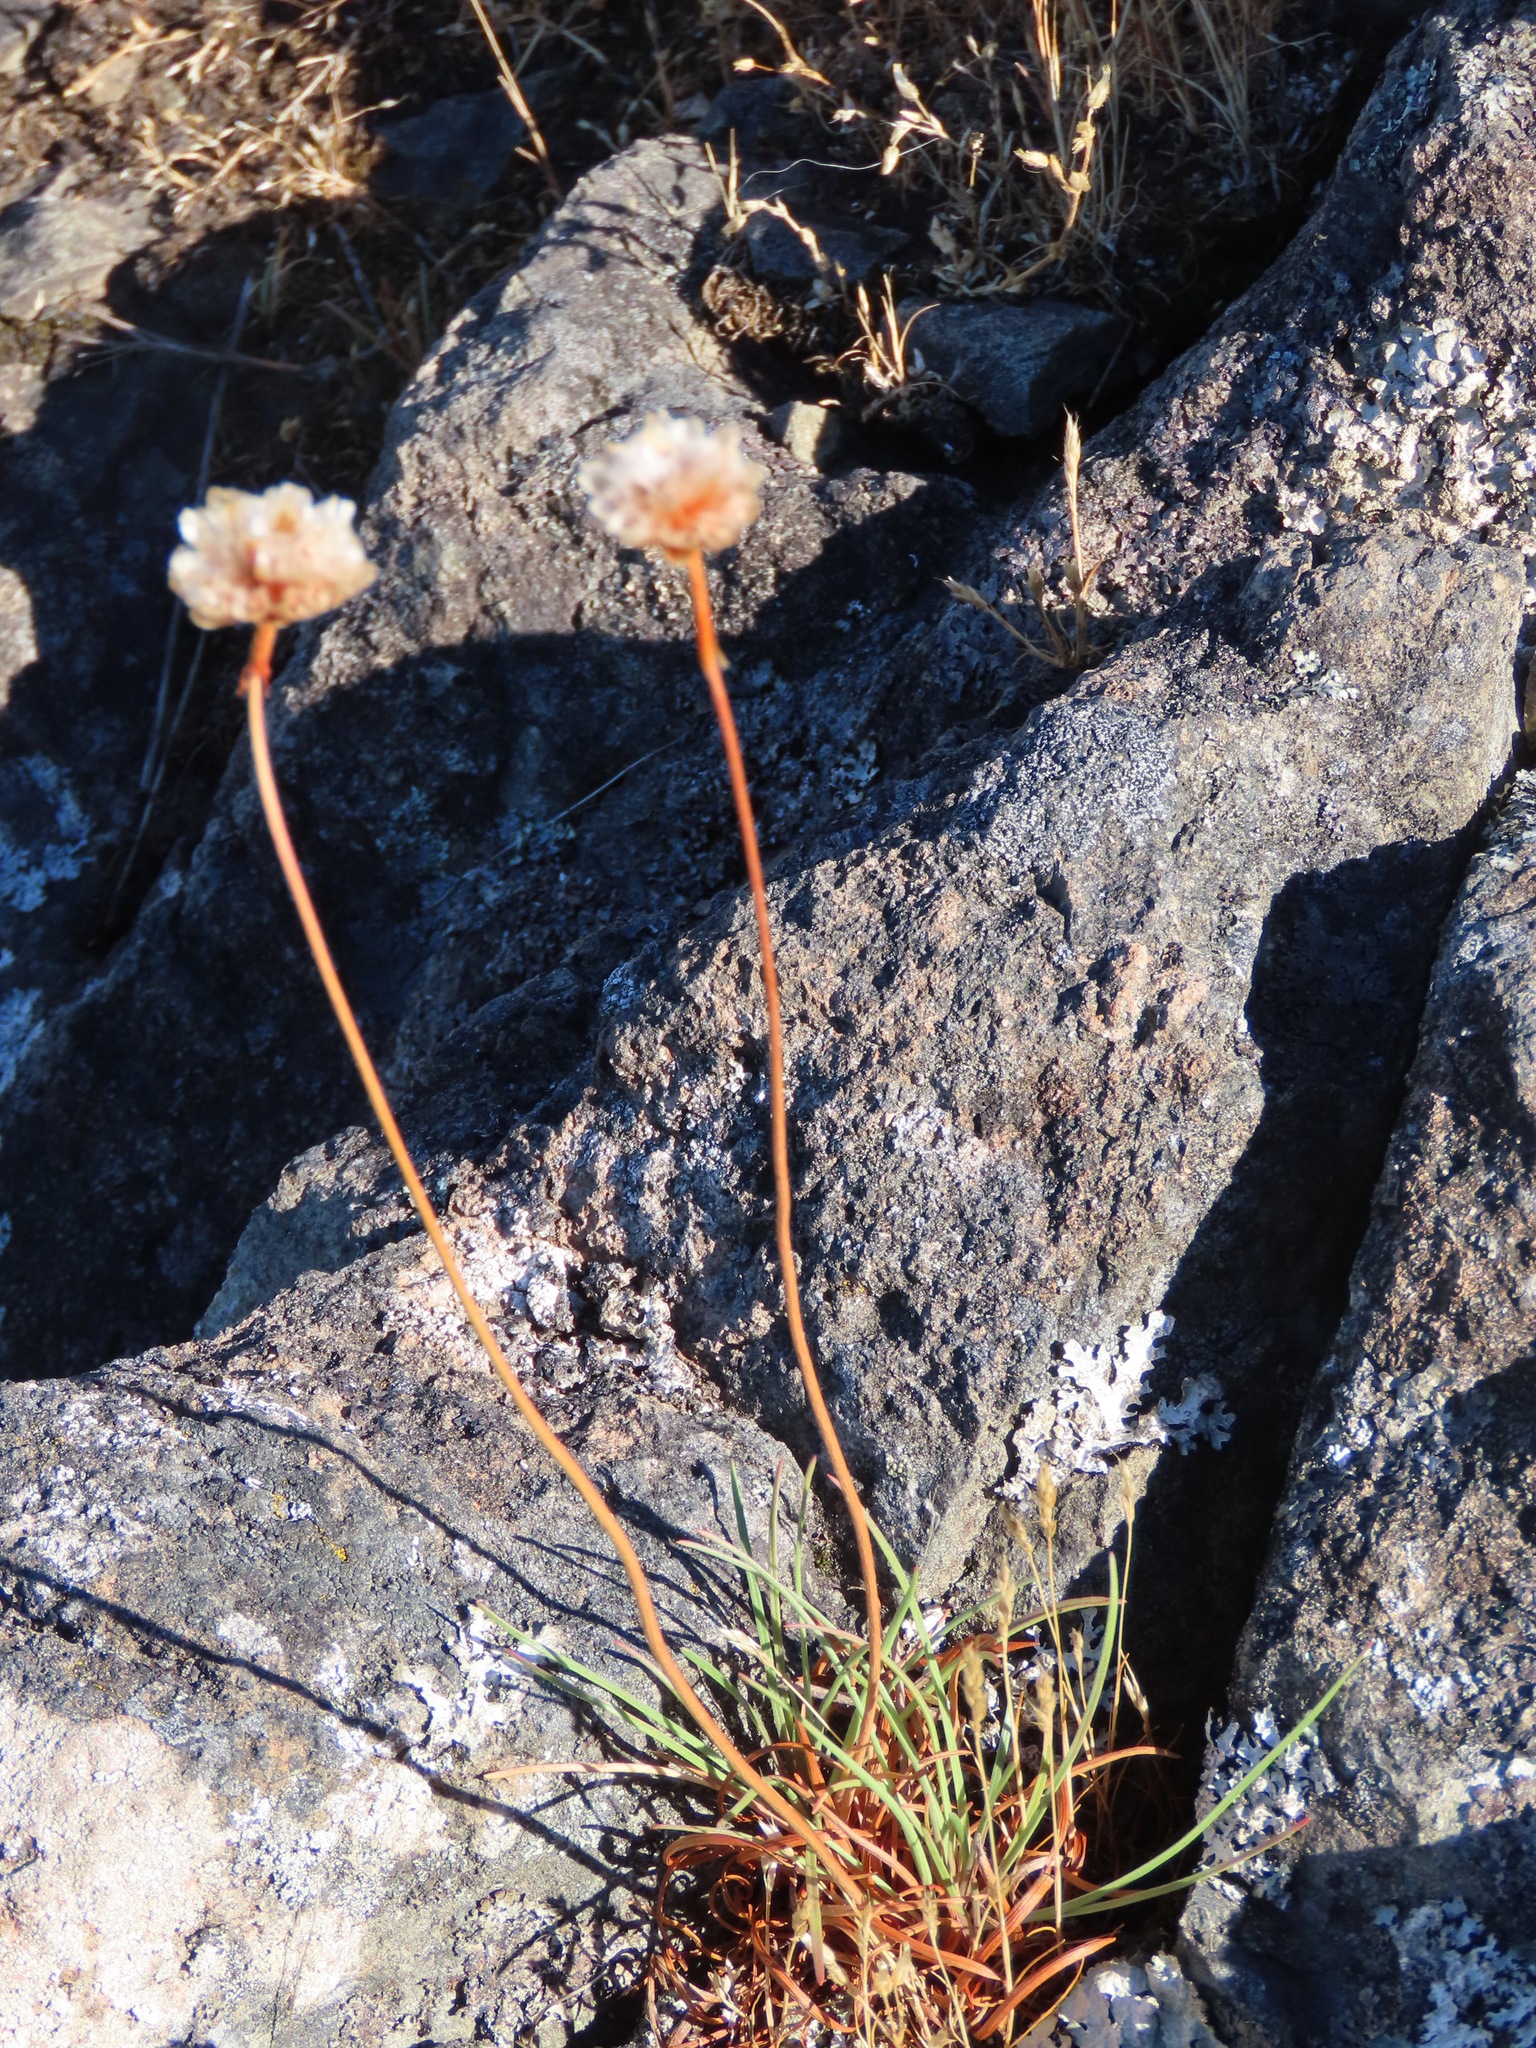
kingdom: Plantae
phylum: Tracheophyta
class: Magnoliopsida
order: Caryophyllales
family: Plumbaginaceae
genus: Armeria
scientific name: Armeria maritima
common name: Thrift
